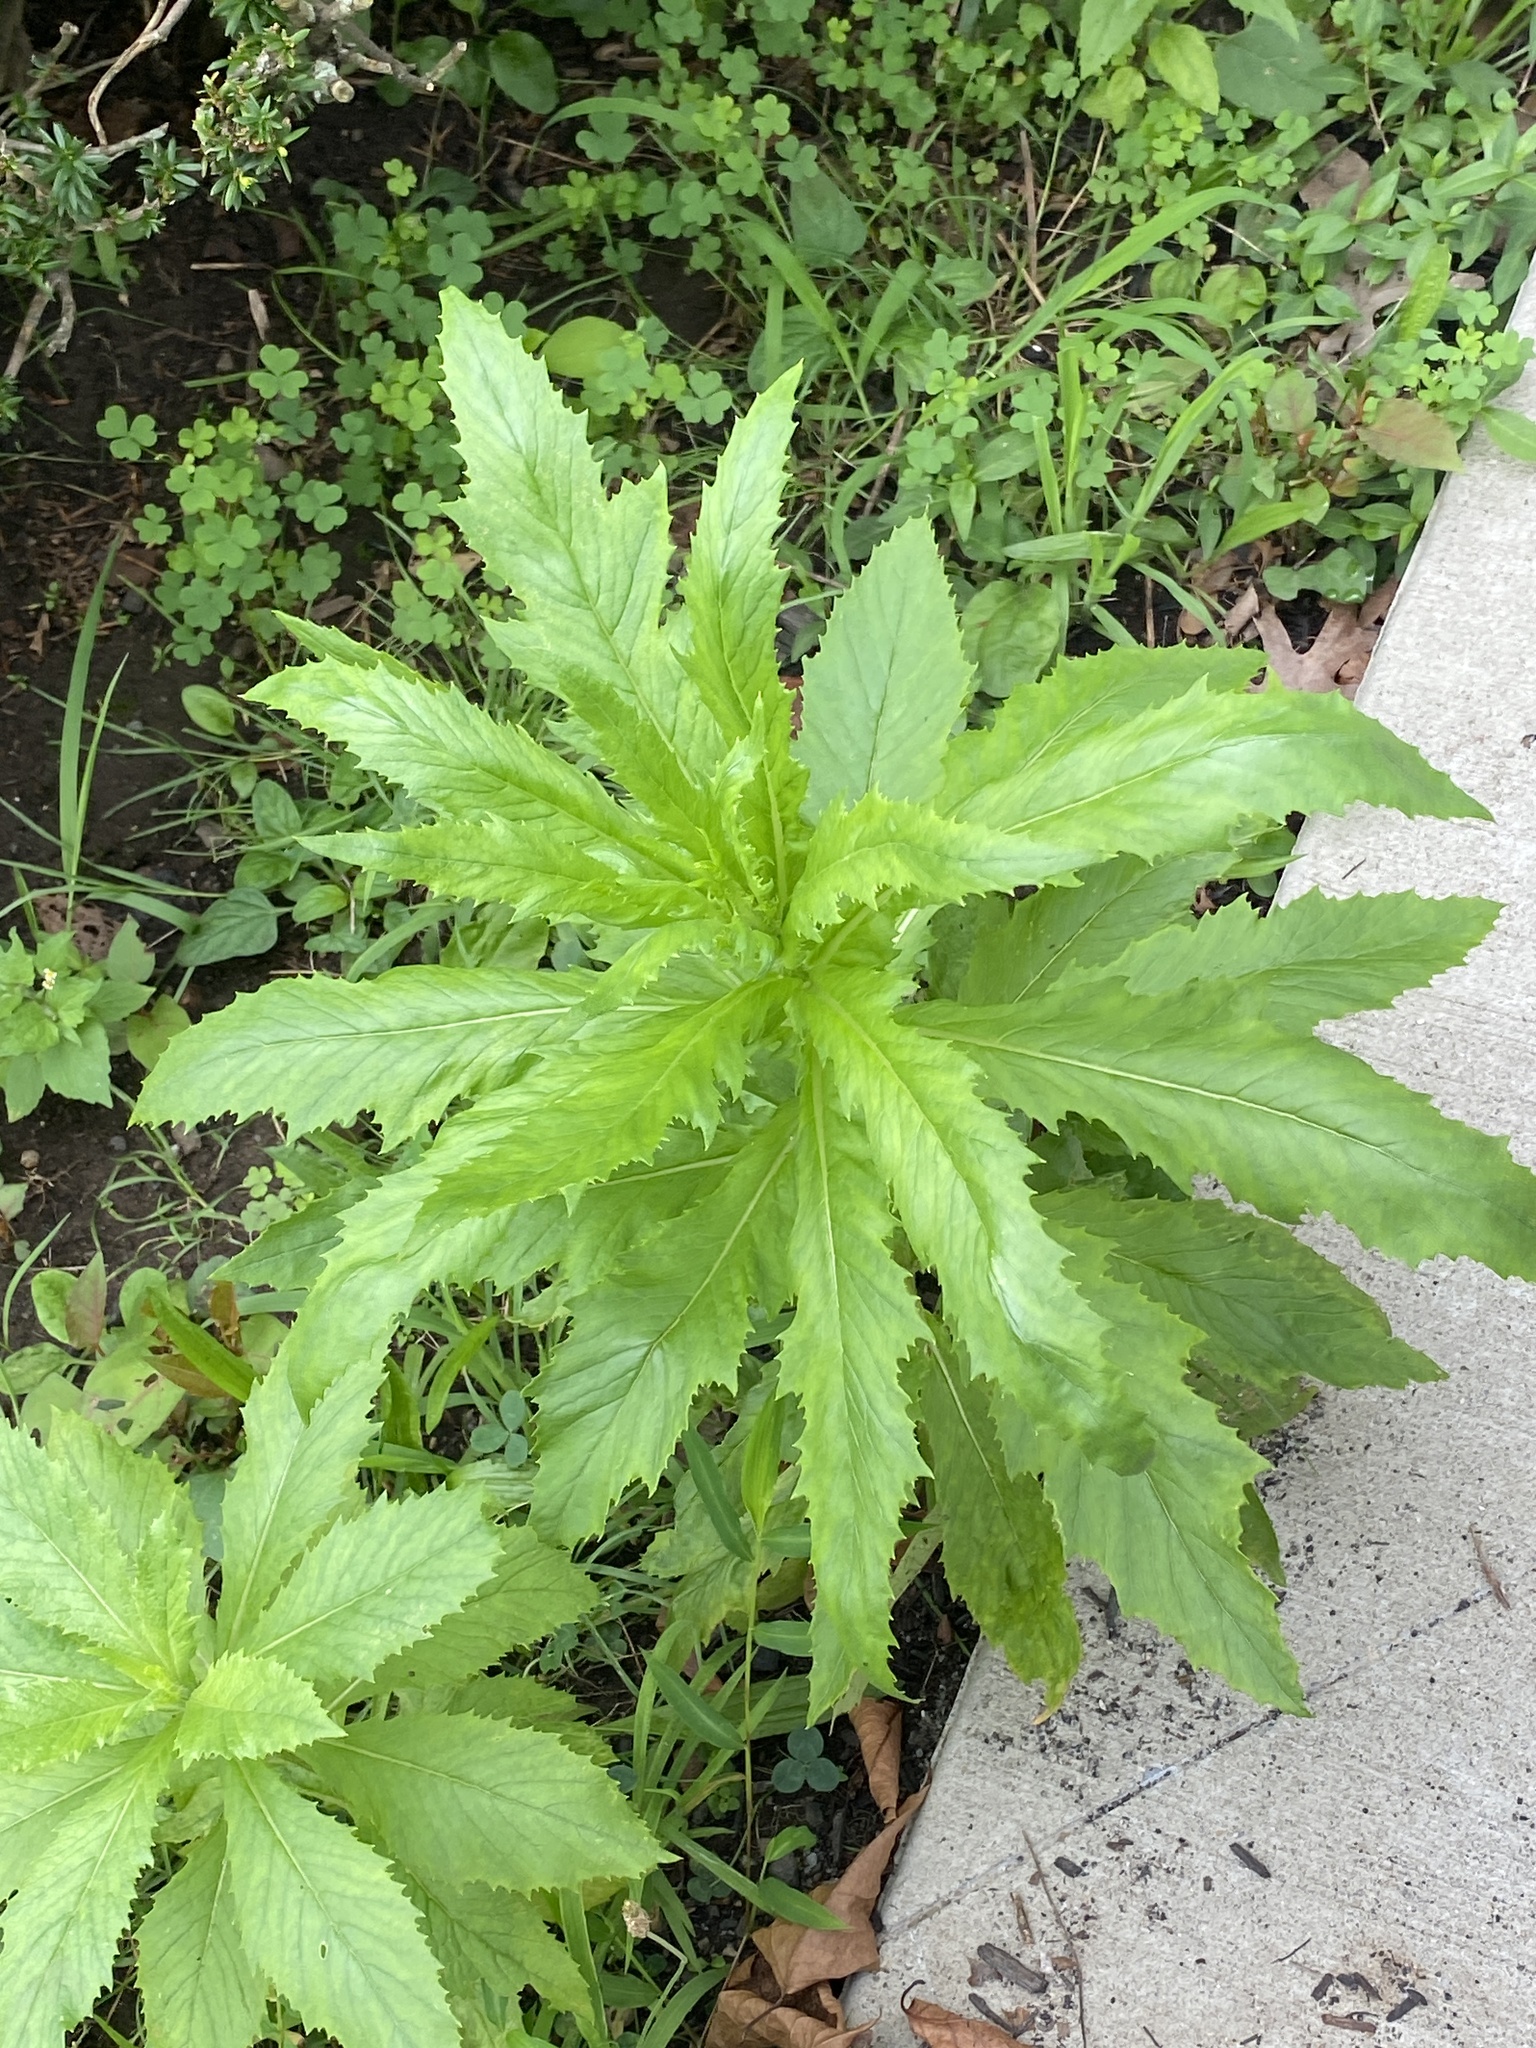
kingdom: Plantae
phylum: Tracheophyta
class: Magnoliopsida
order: Asterales
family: Asteraceae
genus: Erechtites
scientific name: Erechtites hieraciifolius
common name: American burnweed
